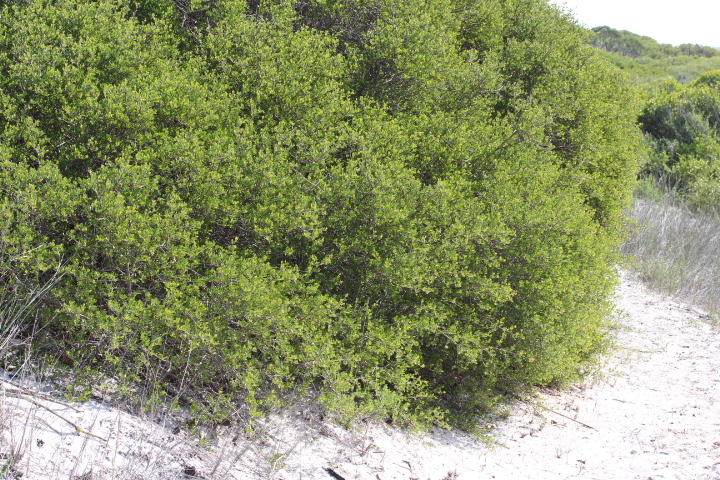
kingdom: Plantae
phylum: Tracheophyta
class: Magnoliopsida
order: Sapindales
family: Anacardiaceae
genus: Searsia
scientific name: Searsia glauca
